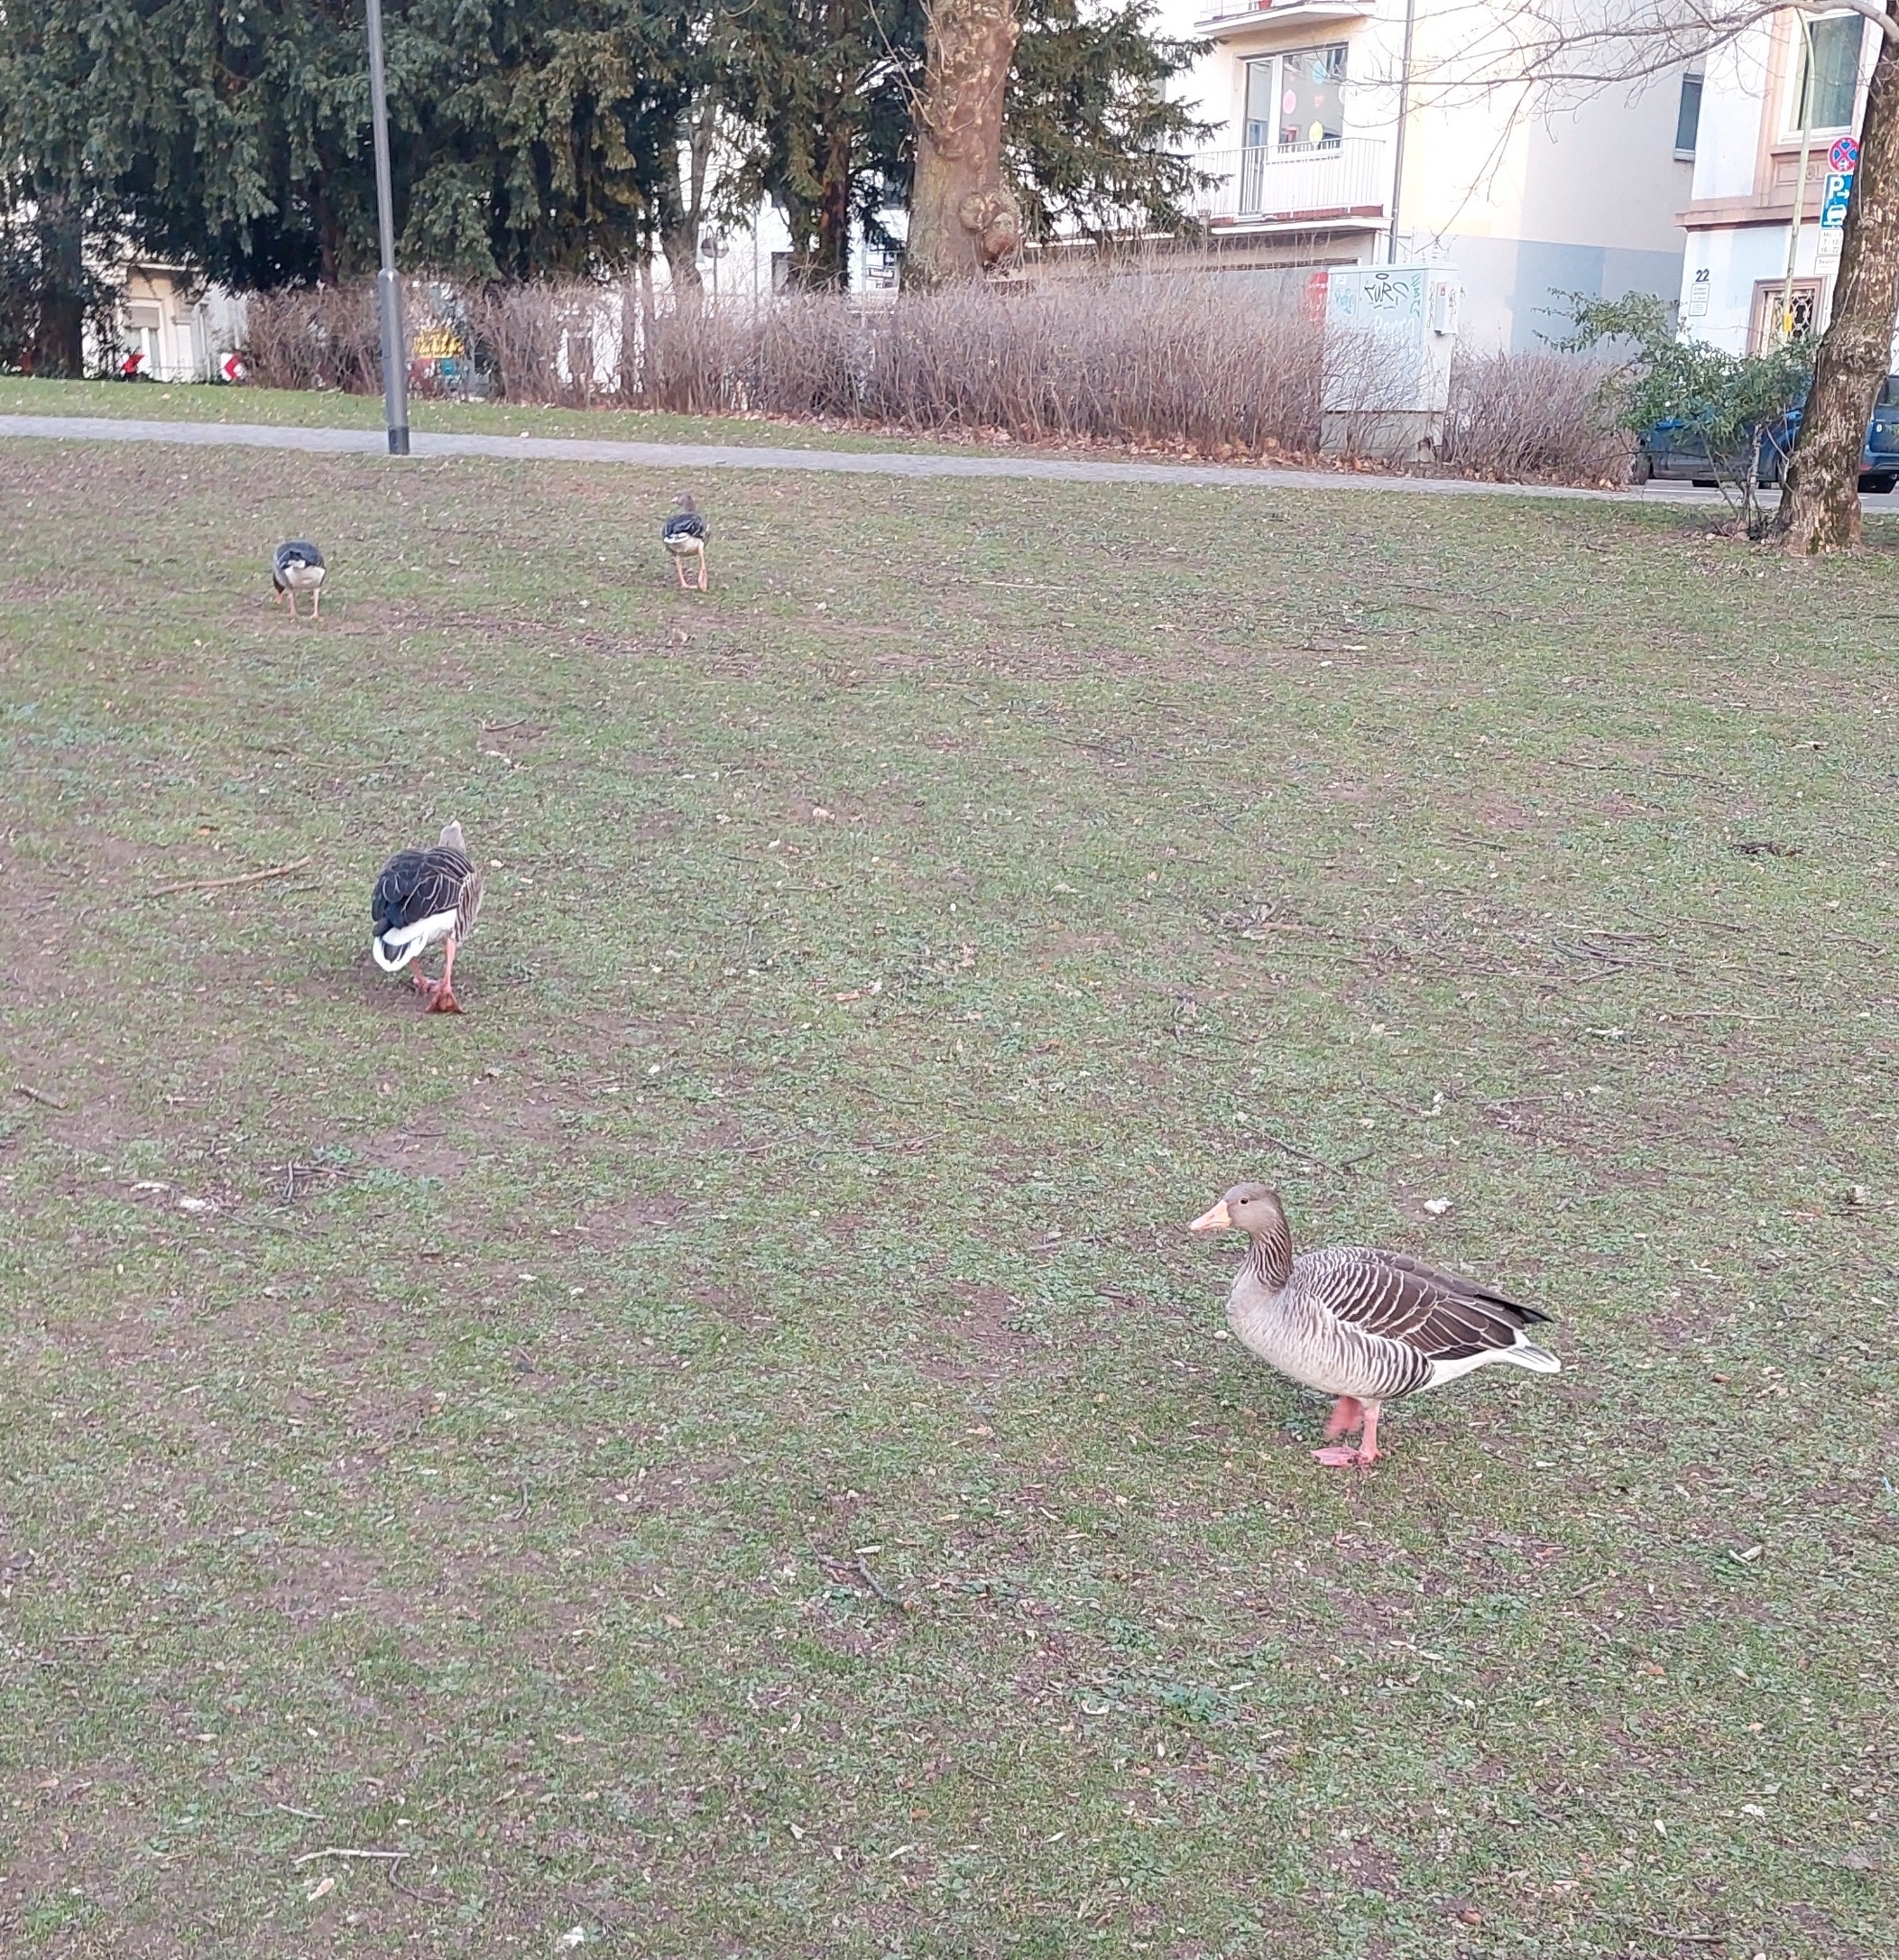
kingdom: Animalia
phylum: Chordata
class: Aves
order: Anseriformes
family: Anatidae
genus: Anser
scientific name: Anser anser
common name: Greylag goose
